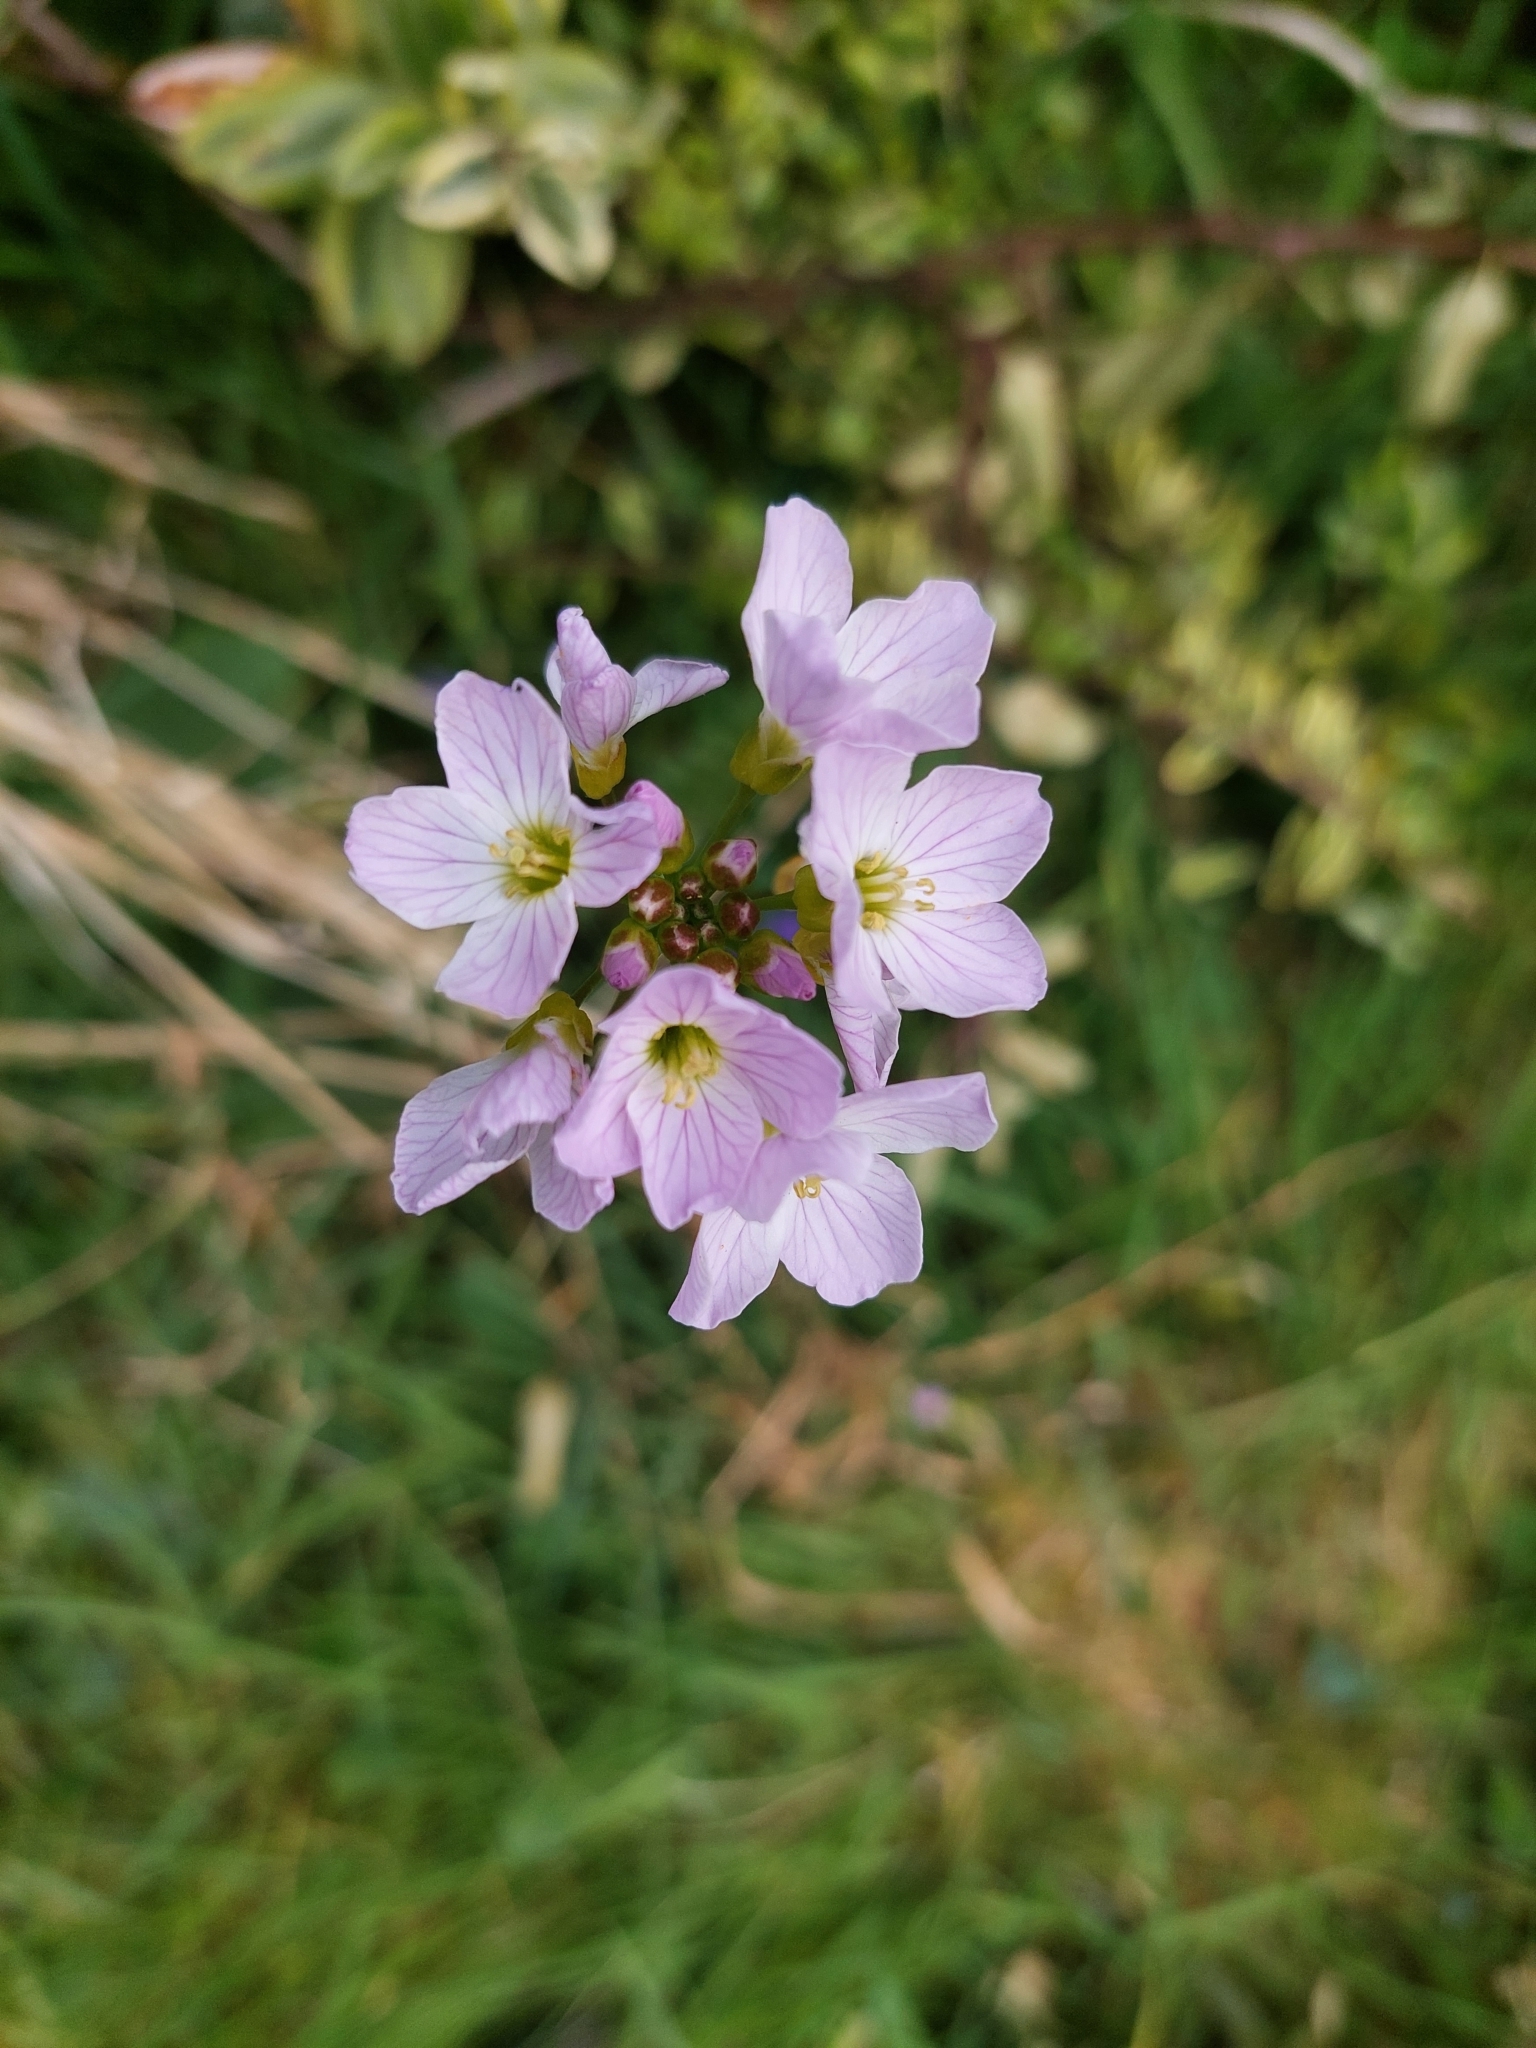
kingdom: Plantae
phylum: Tracheophyta
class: Magnoliopsida
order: Brassicales
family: Brassicaceae
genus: Cardamine
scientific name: Cardamine pratensis
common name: Cuckoo flower
